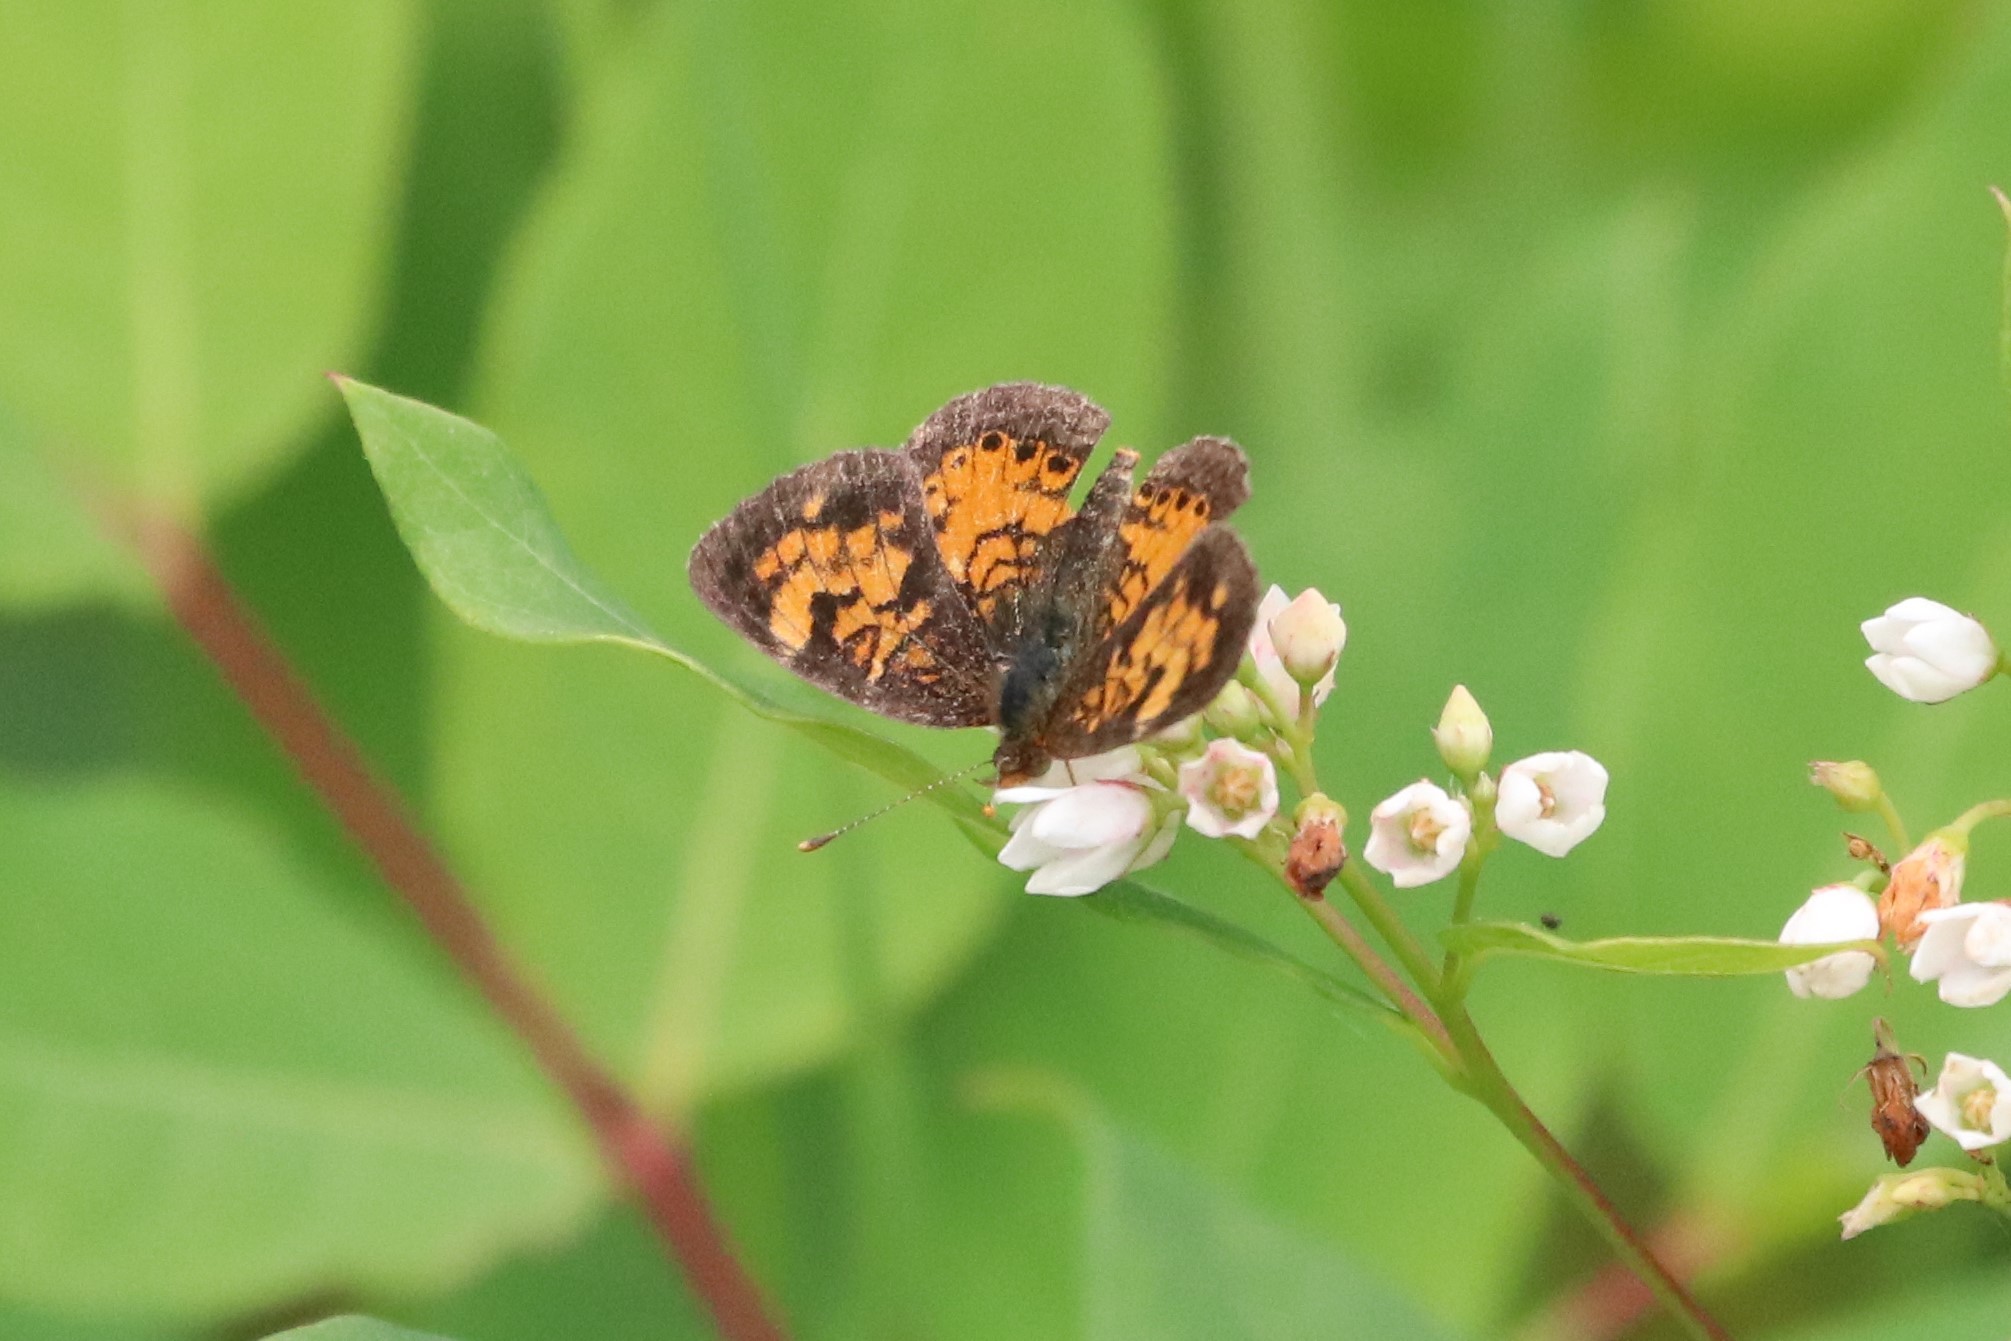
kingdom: Animalia
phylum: Arthropoda
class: Insecta
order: Lepidoptera
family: Nymphalidae
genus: Phyciodes
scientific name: Phyciodes tharos
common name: Pearl crescent
